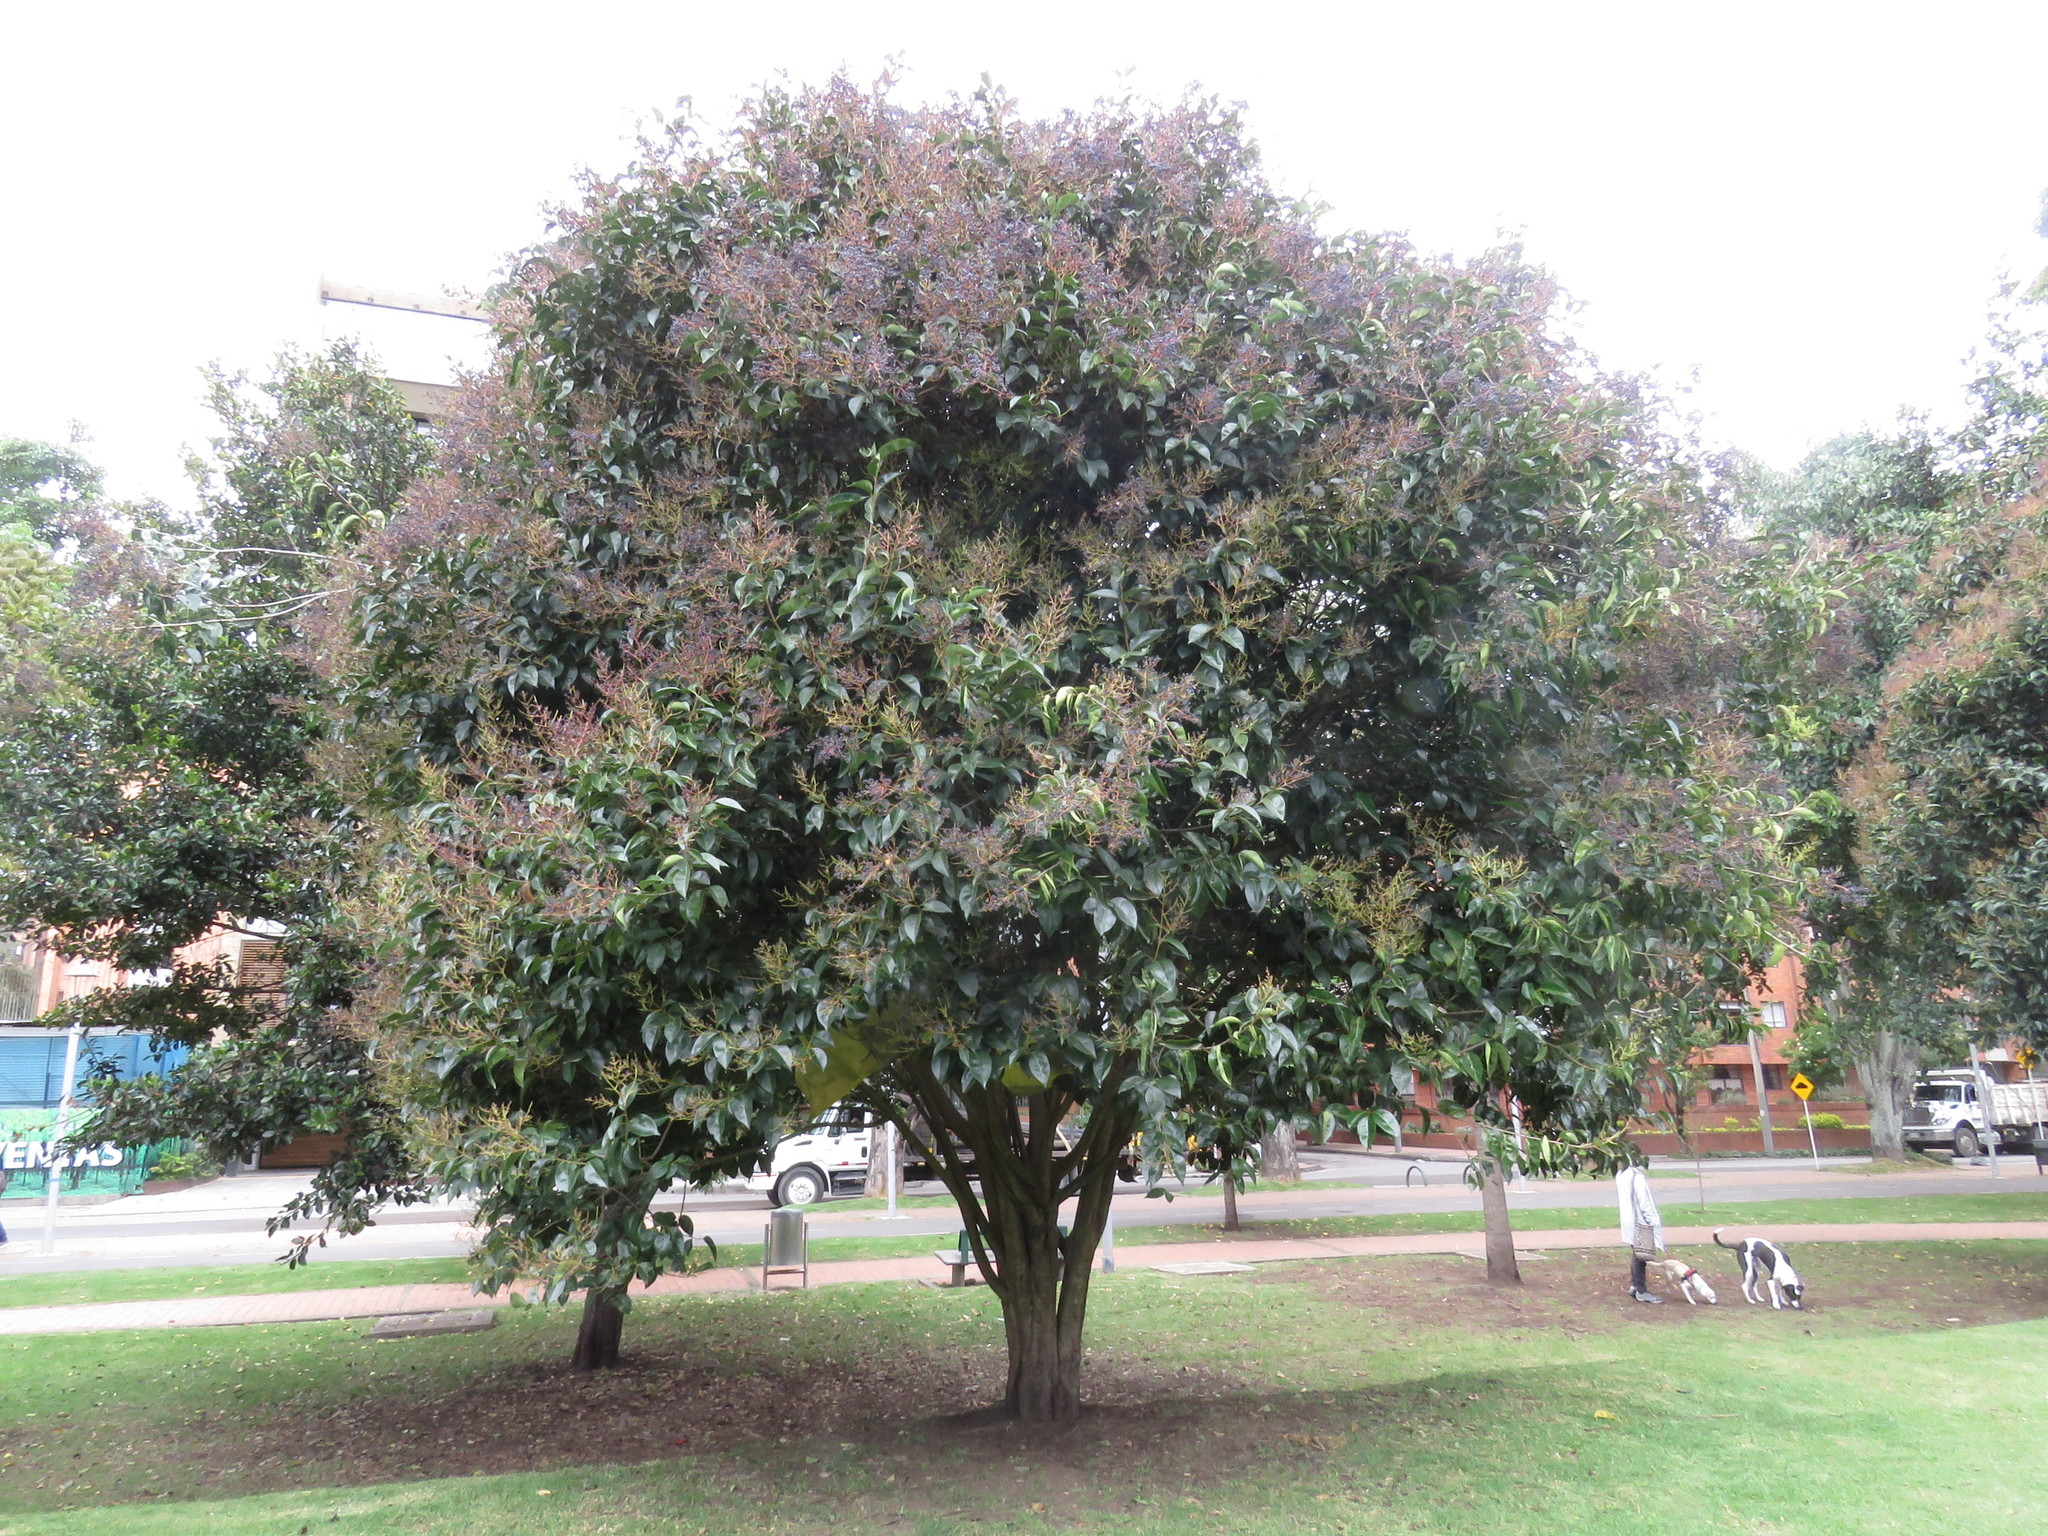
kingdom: Animalia
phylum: Chordata
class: Aves
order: Passeriformes
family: Turdidae
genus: Turdus
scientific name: Turdus fuscater
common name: Great thrush
